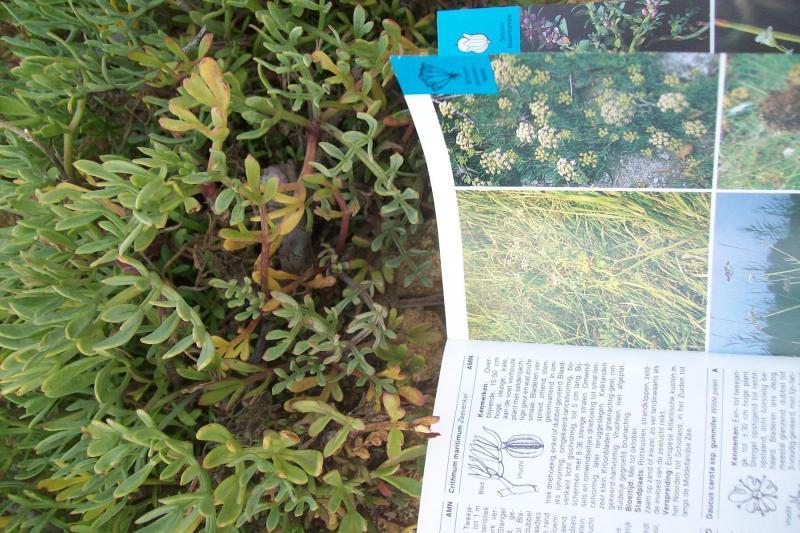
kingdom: Plantae
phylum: Tracheophyta
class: Magnoliopsida
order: Apiales
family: Apiaceae
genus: Crithmum
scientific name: Crithmum maritimum
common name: Rock samphire
